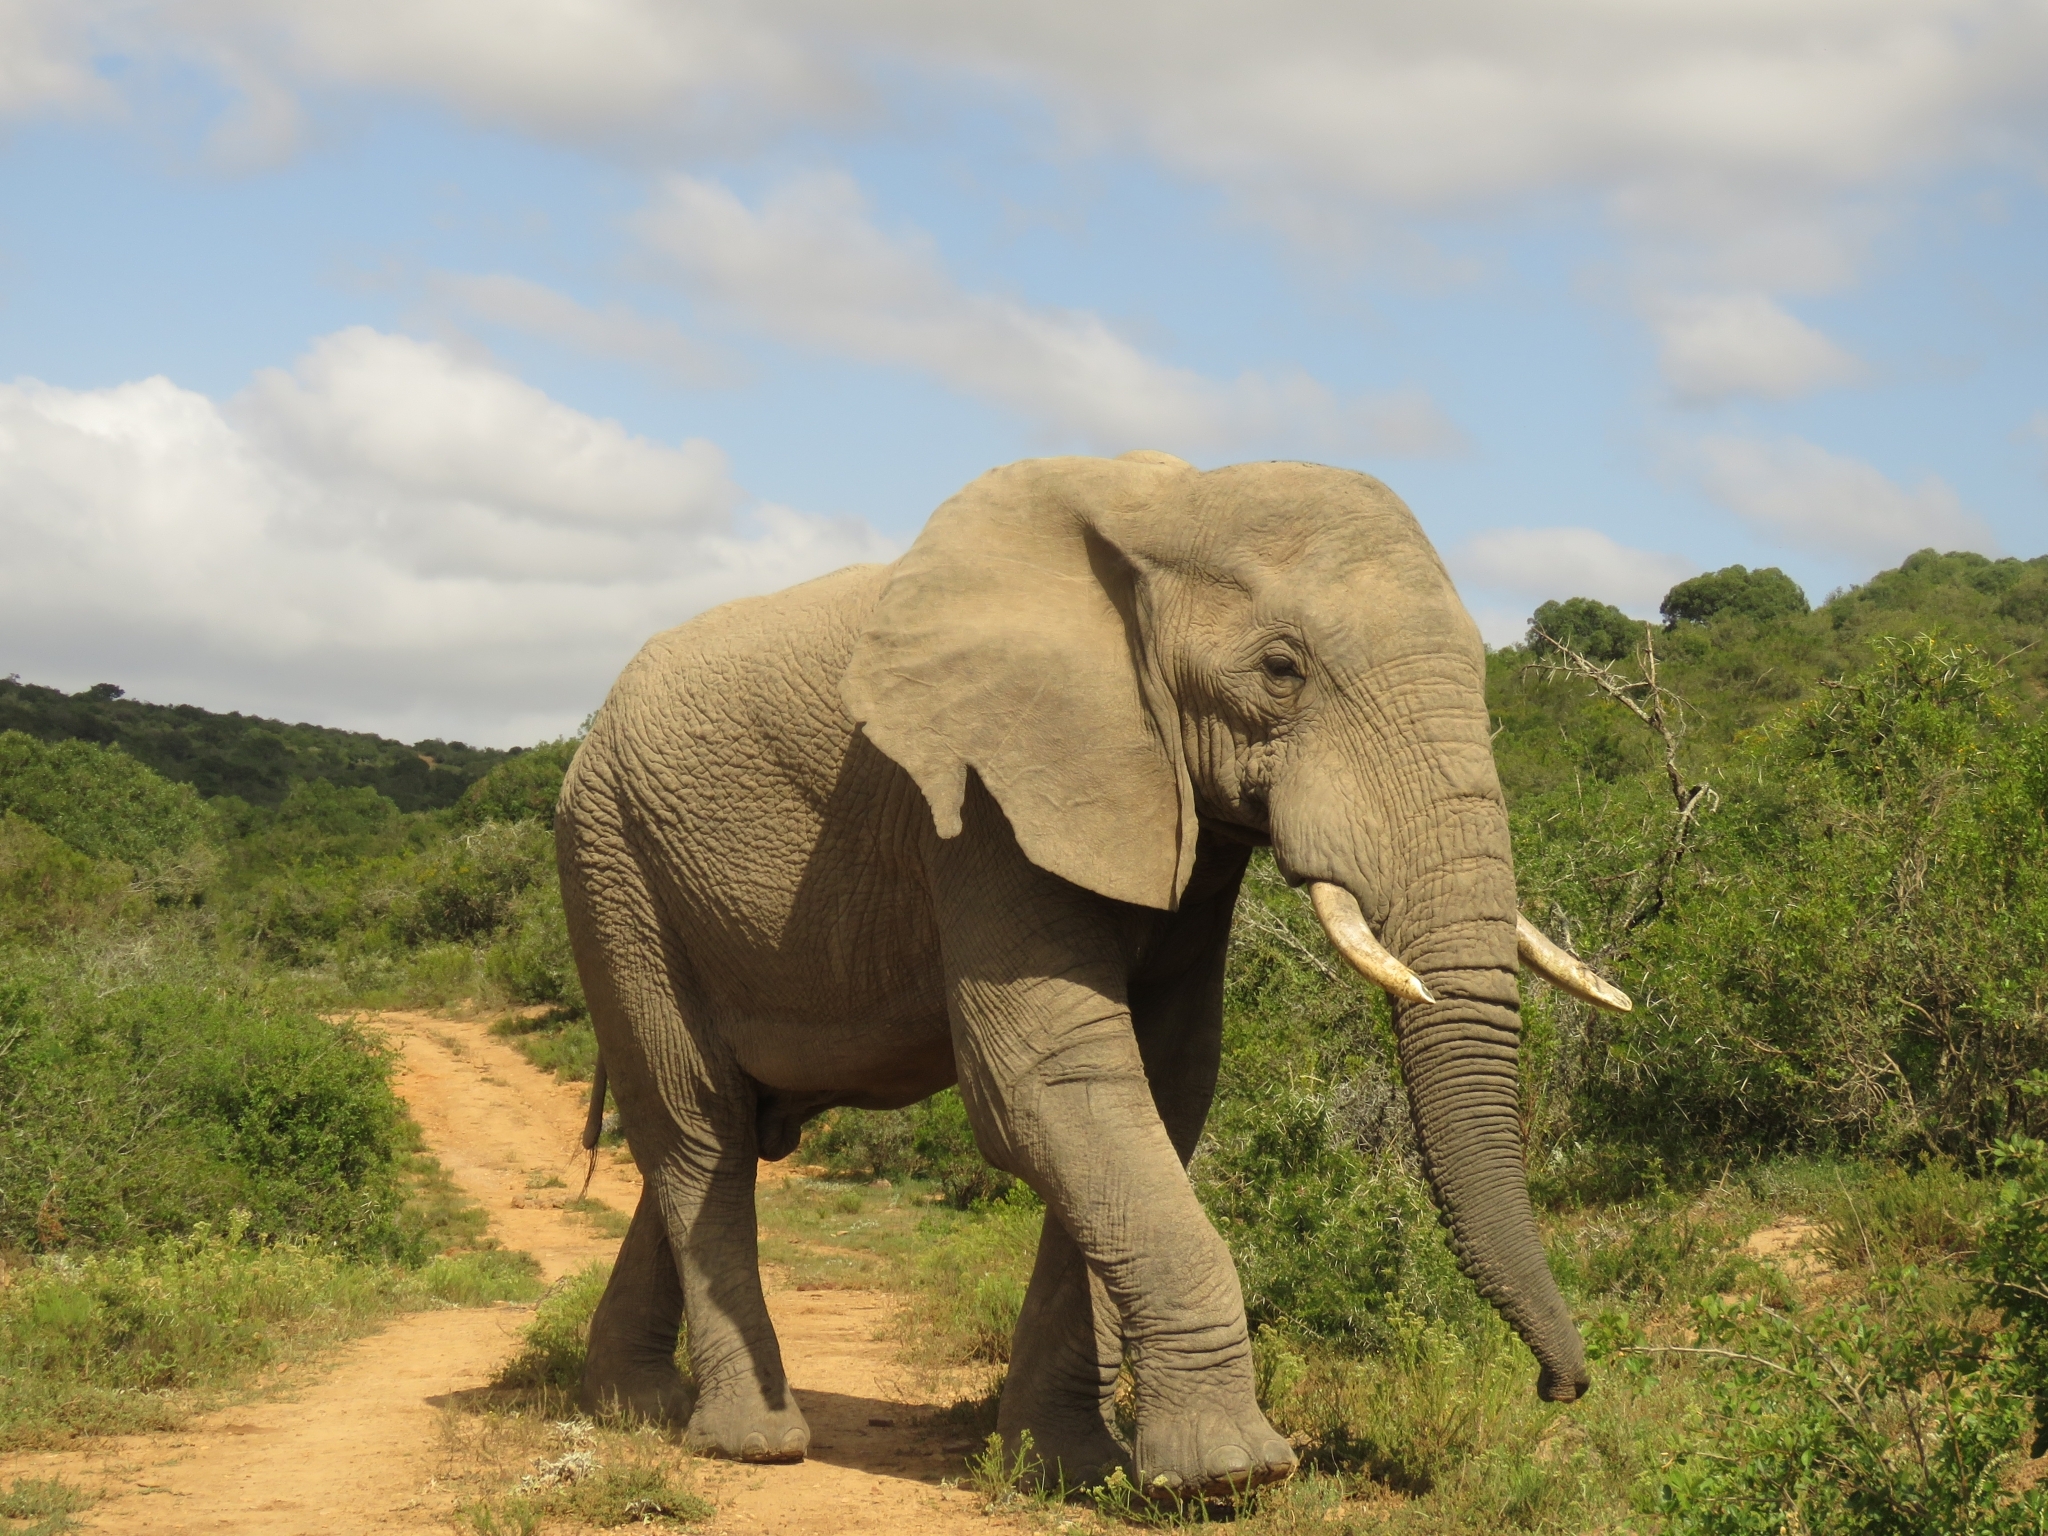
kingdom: Animalia
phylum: Chordata
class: Mammalia
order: Proboscidea
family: Elephantidae
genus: Loxodonta
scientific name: Loxodonta africana
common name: African elephant
